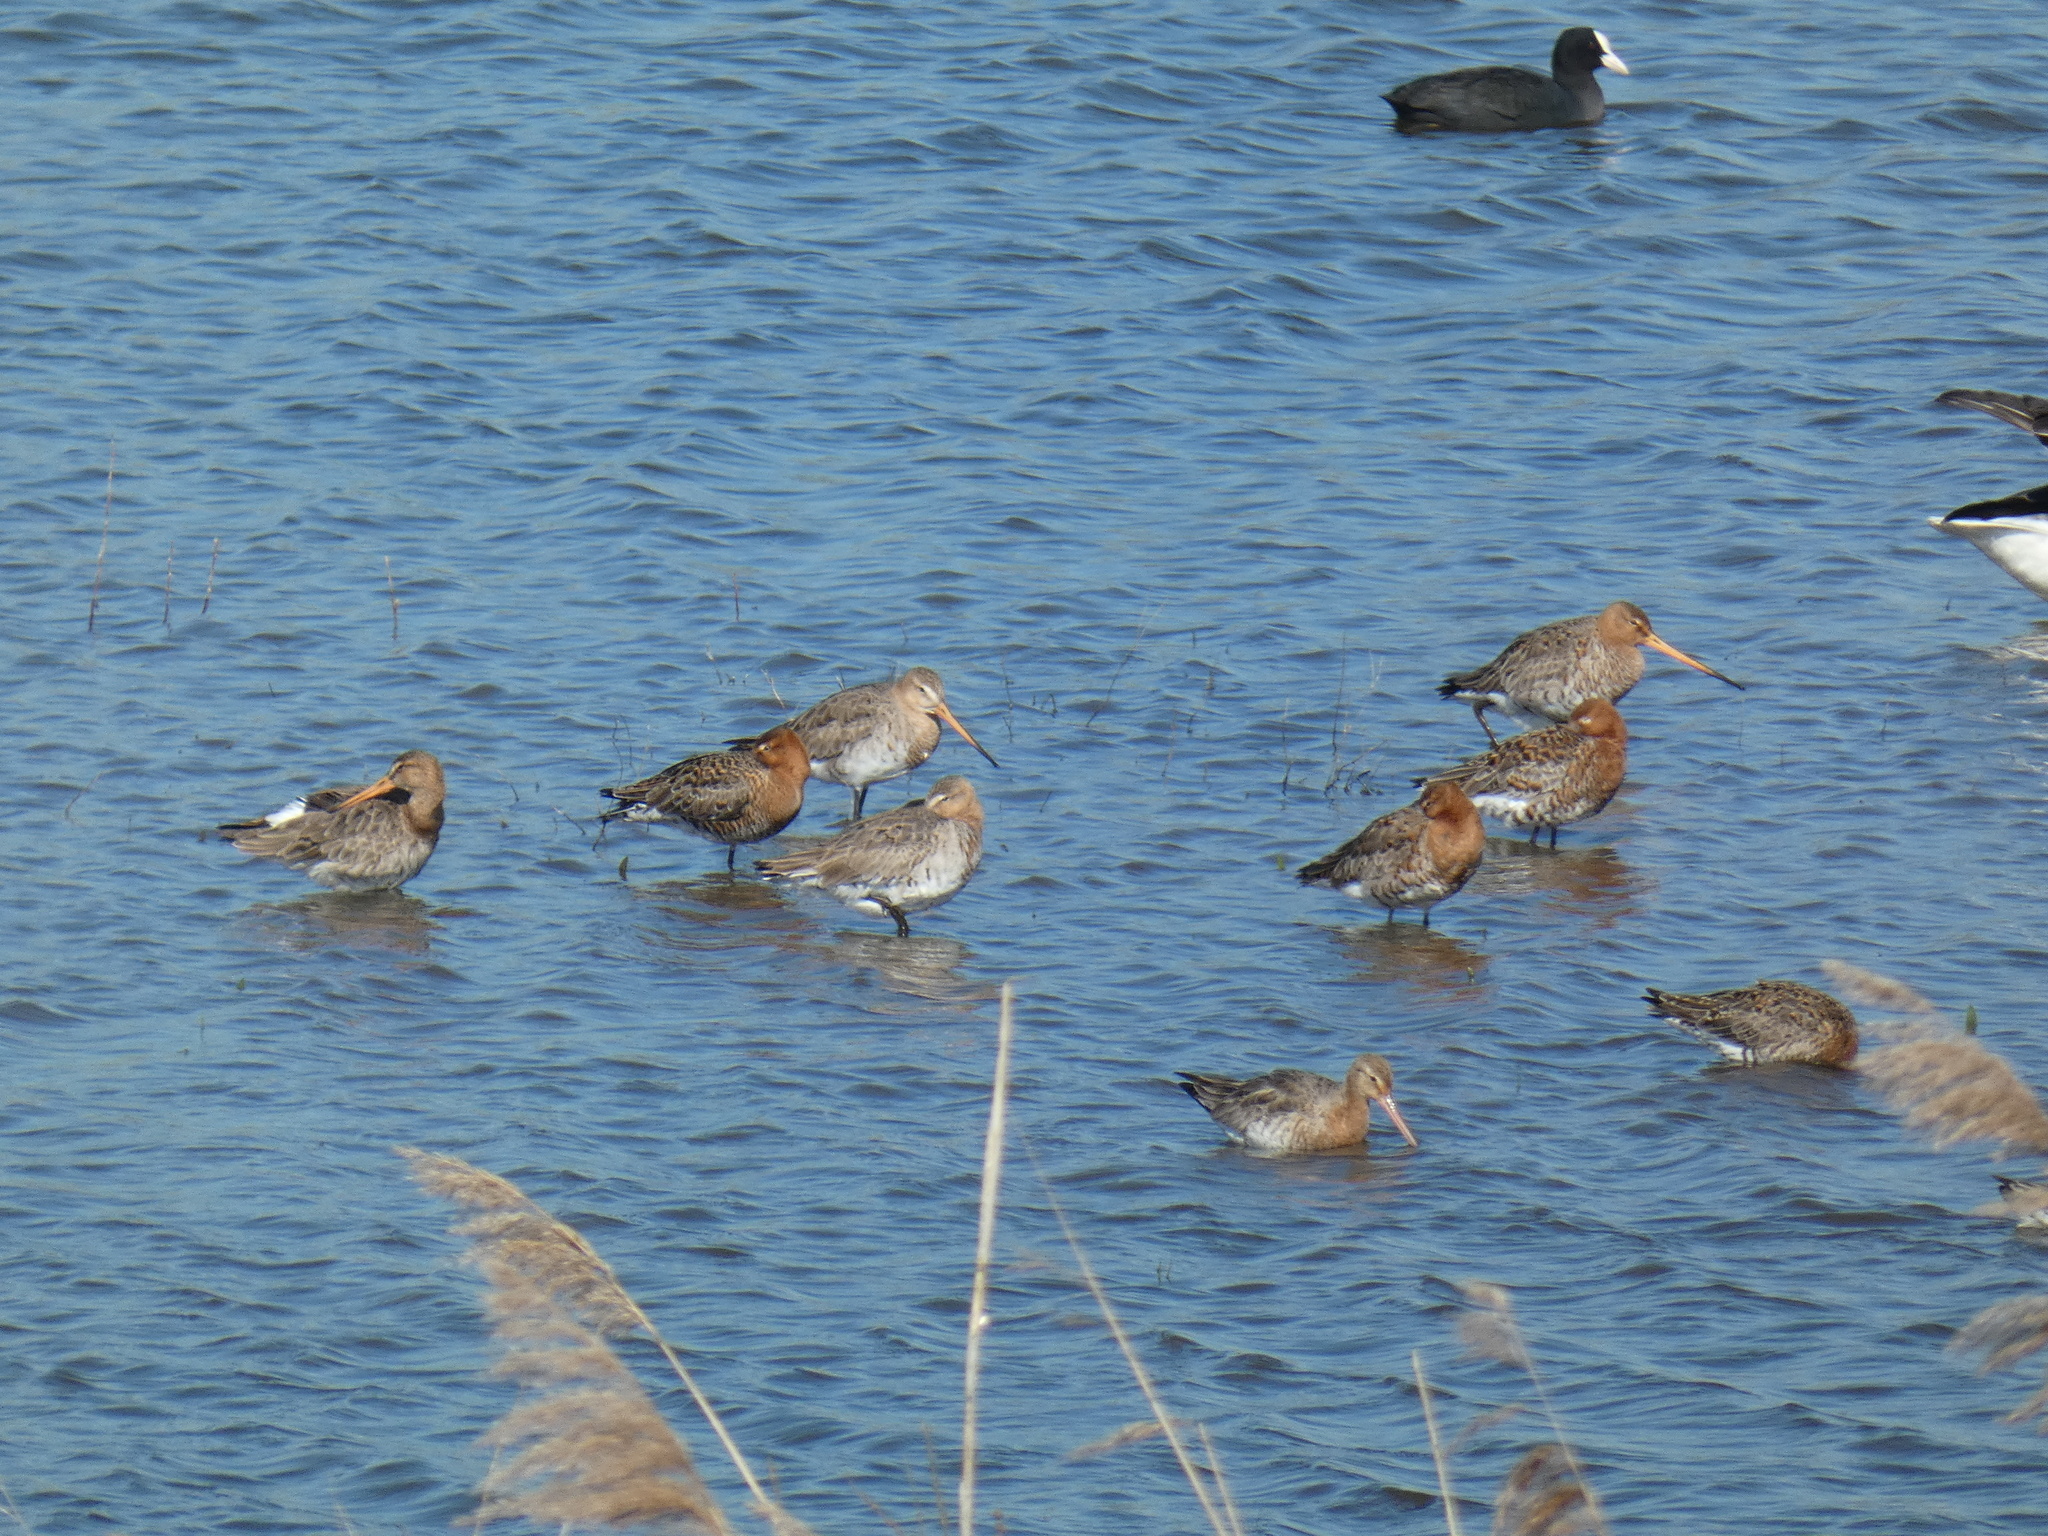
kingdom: Animalia
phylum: Chordata
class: Aves
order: Charadriiformes
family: Scolopacidae
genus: Limosa
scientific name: Limosa limosa
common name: Black-tailed godwit
